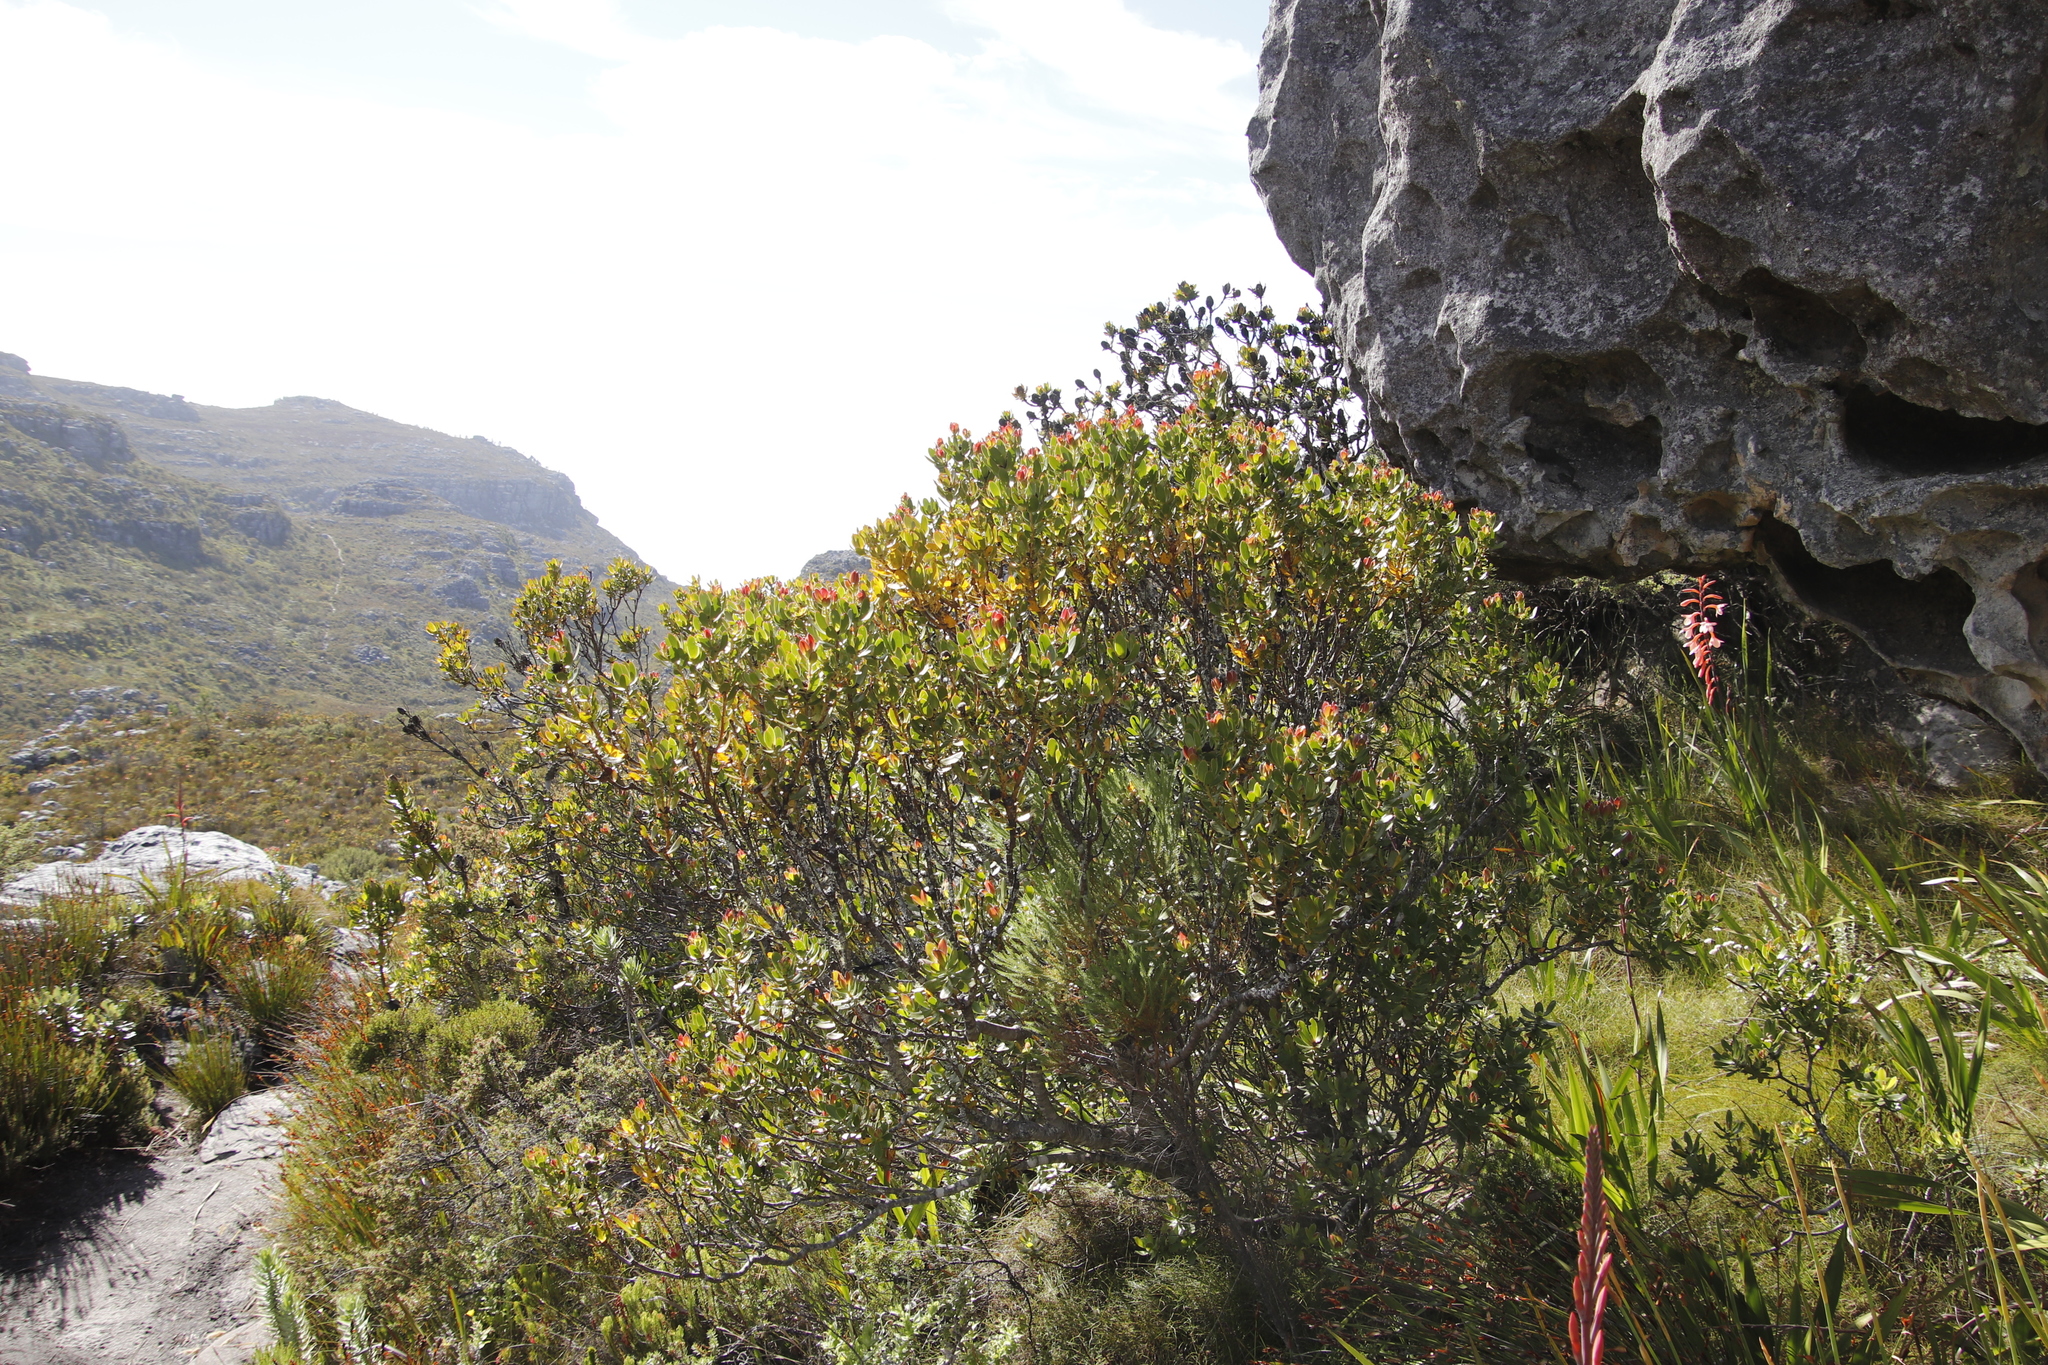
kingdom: Plantae
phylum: Tracheophyta
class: Magnoliopsida
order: Proteales
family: Proteaceae
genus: Leucadendron
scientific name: Leucadendron strobilinum
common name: Mountain rose
